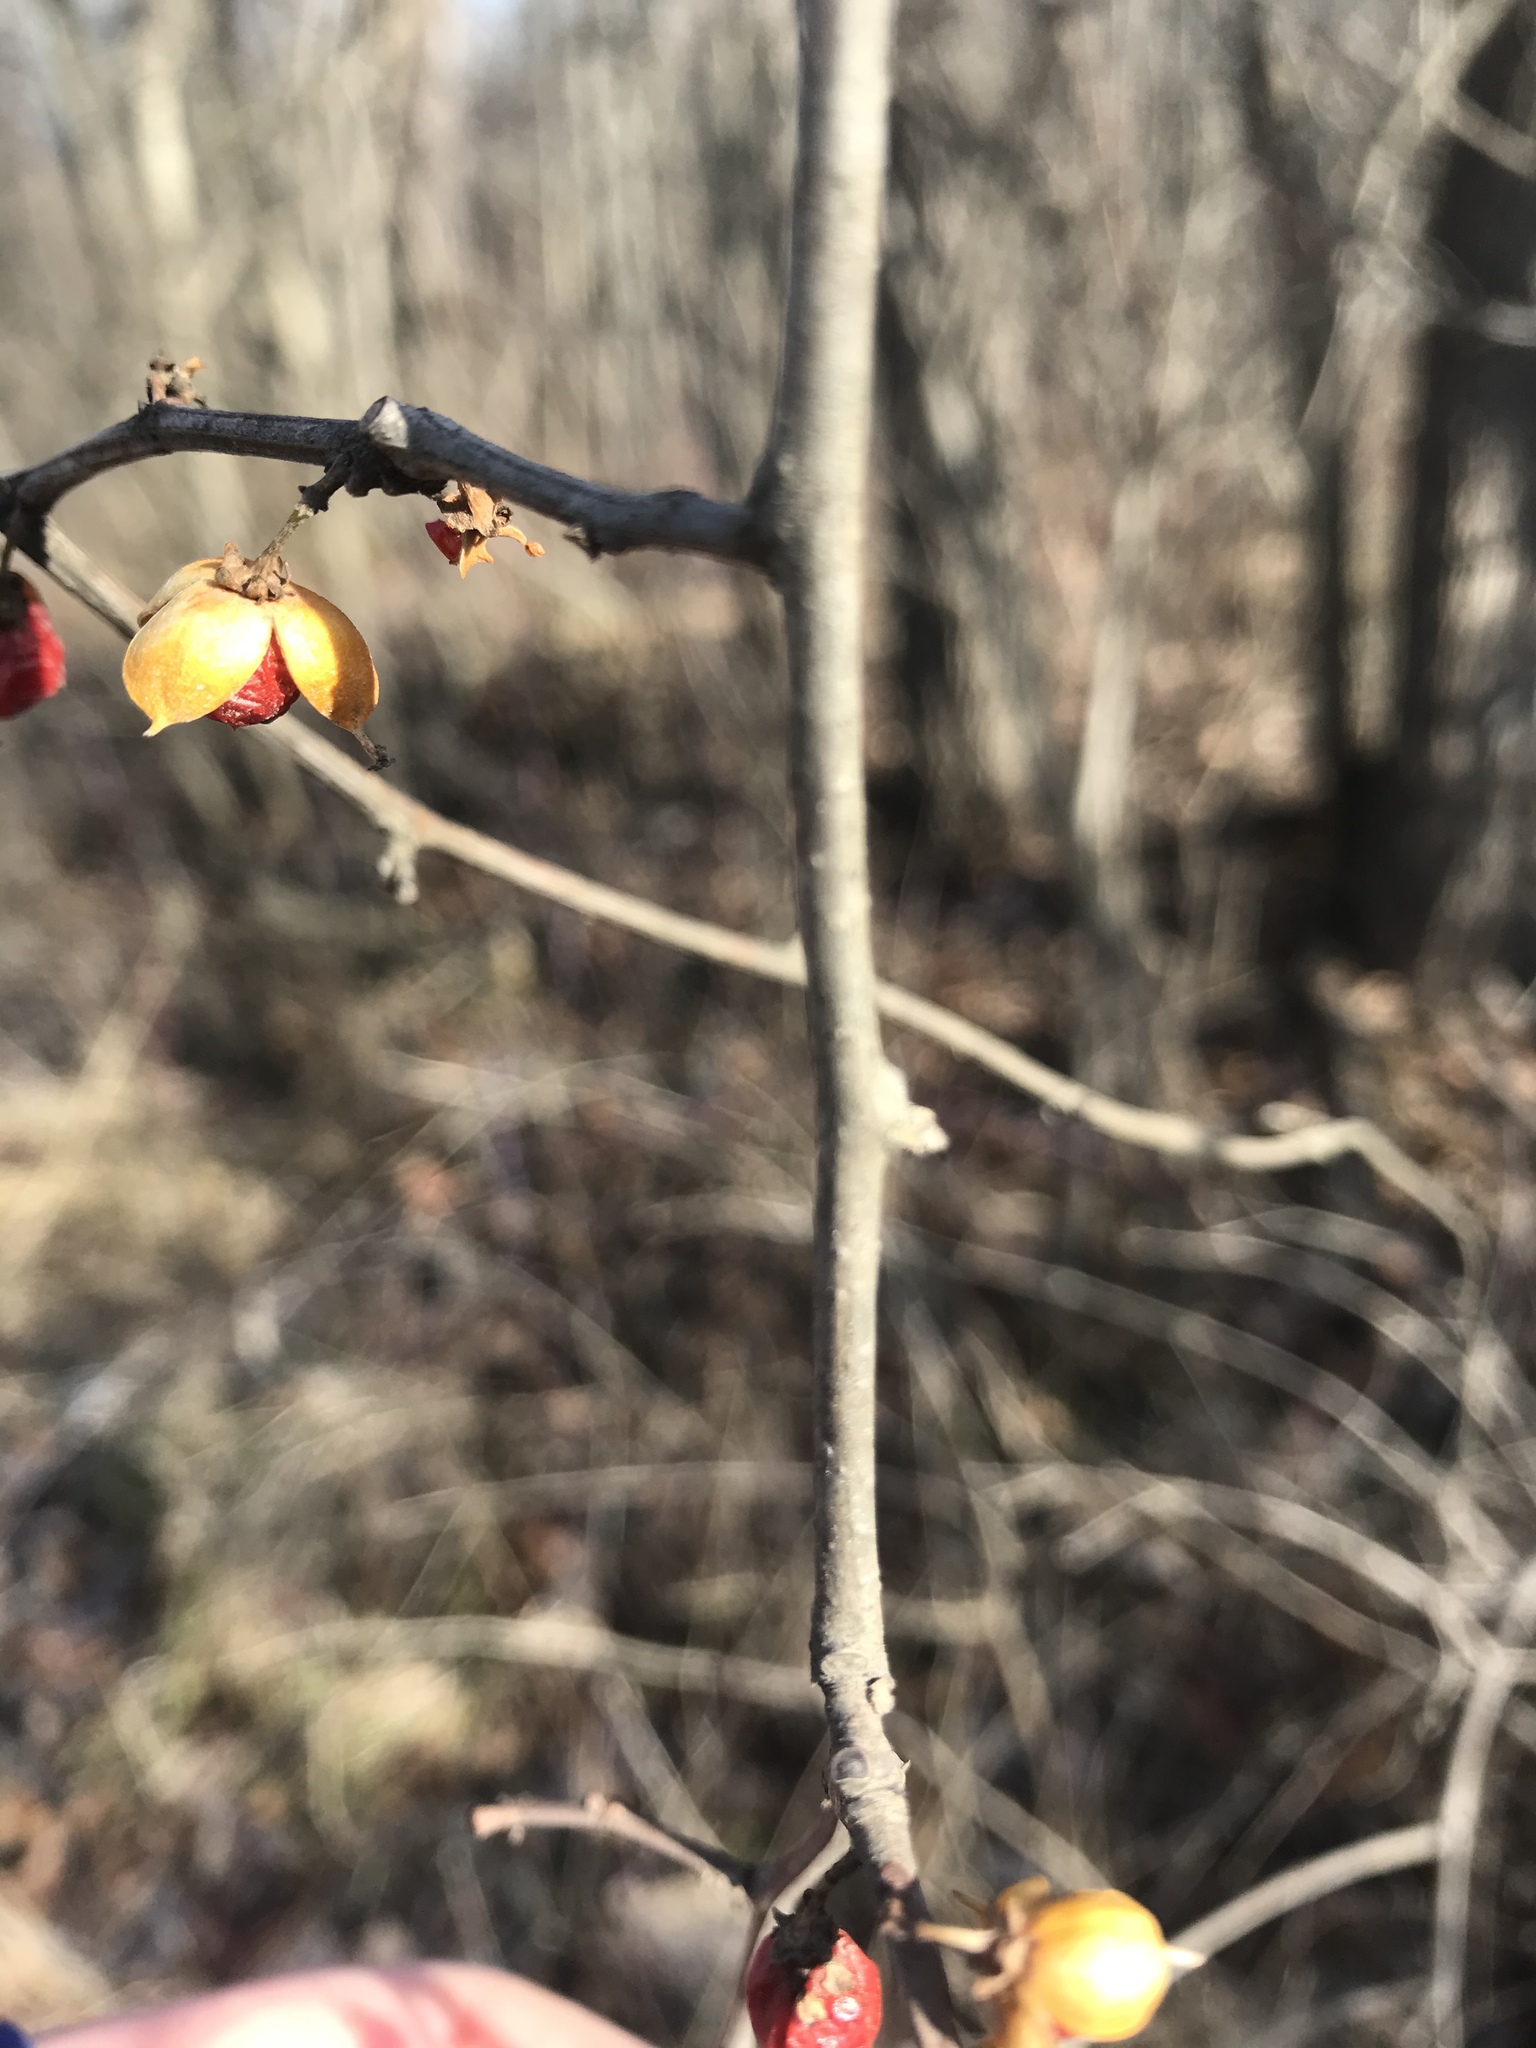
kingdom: Plantae
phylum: Tracheophyta
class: Magnoliopsida
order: Celastrales
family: Celastraceae
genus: Celastrus
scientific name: Celastrus orbiculatus
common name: Oriental bittersweet
